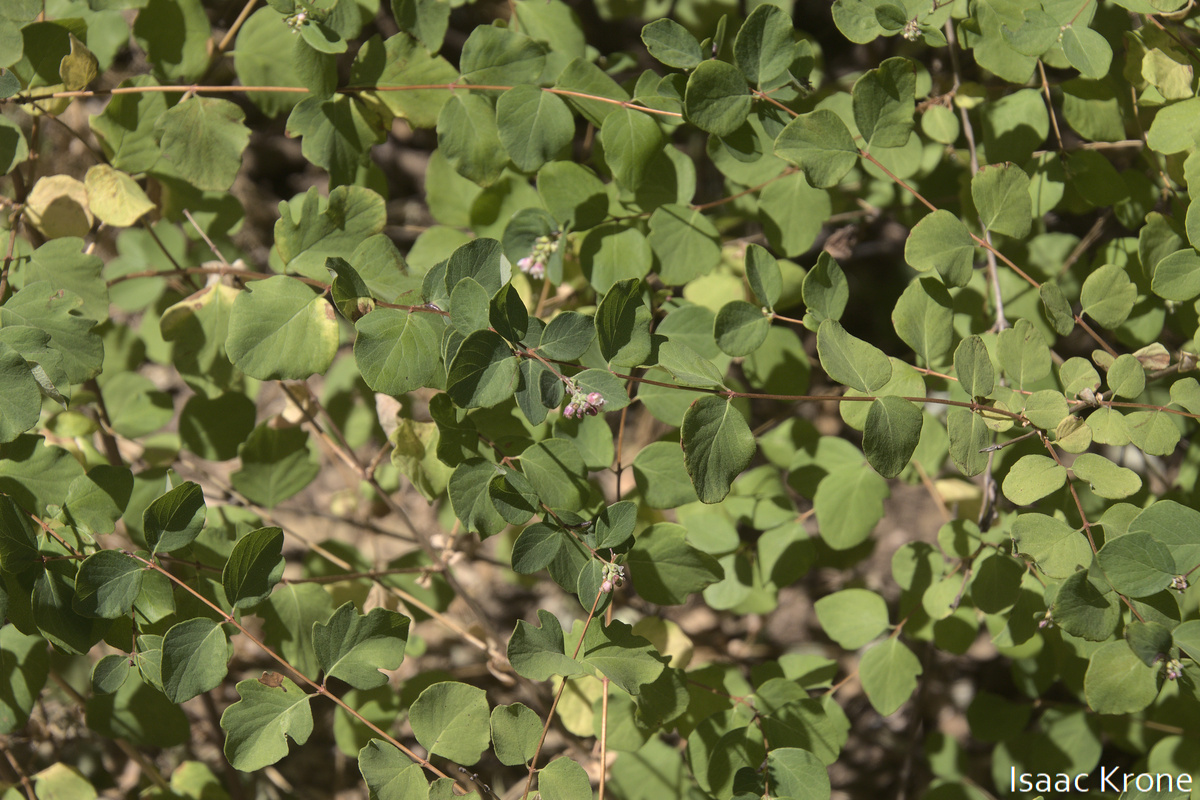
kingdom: Plantae
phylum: Tracheophyta
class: Magnoliopsida
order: Dipsacales
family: Caprifoliaceae
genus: Symphoricarpos
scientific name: Symphoricarpos albus
